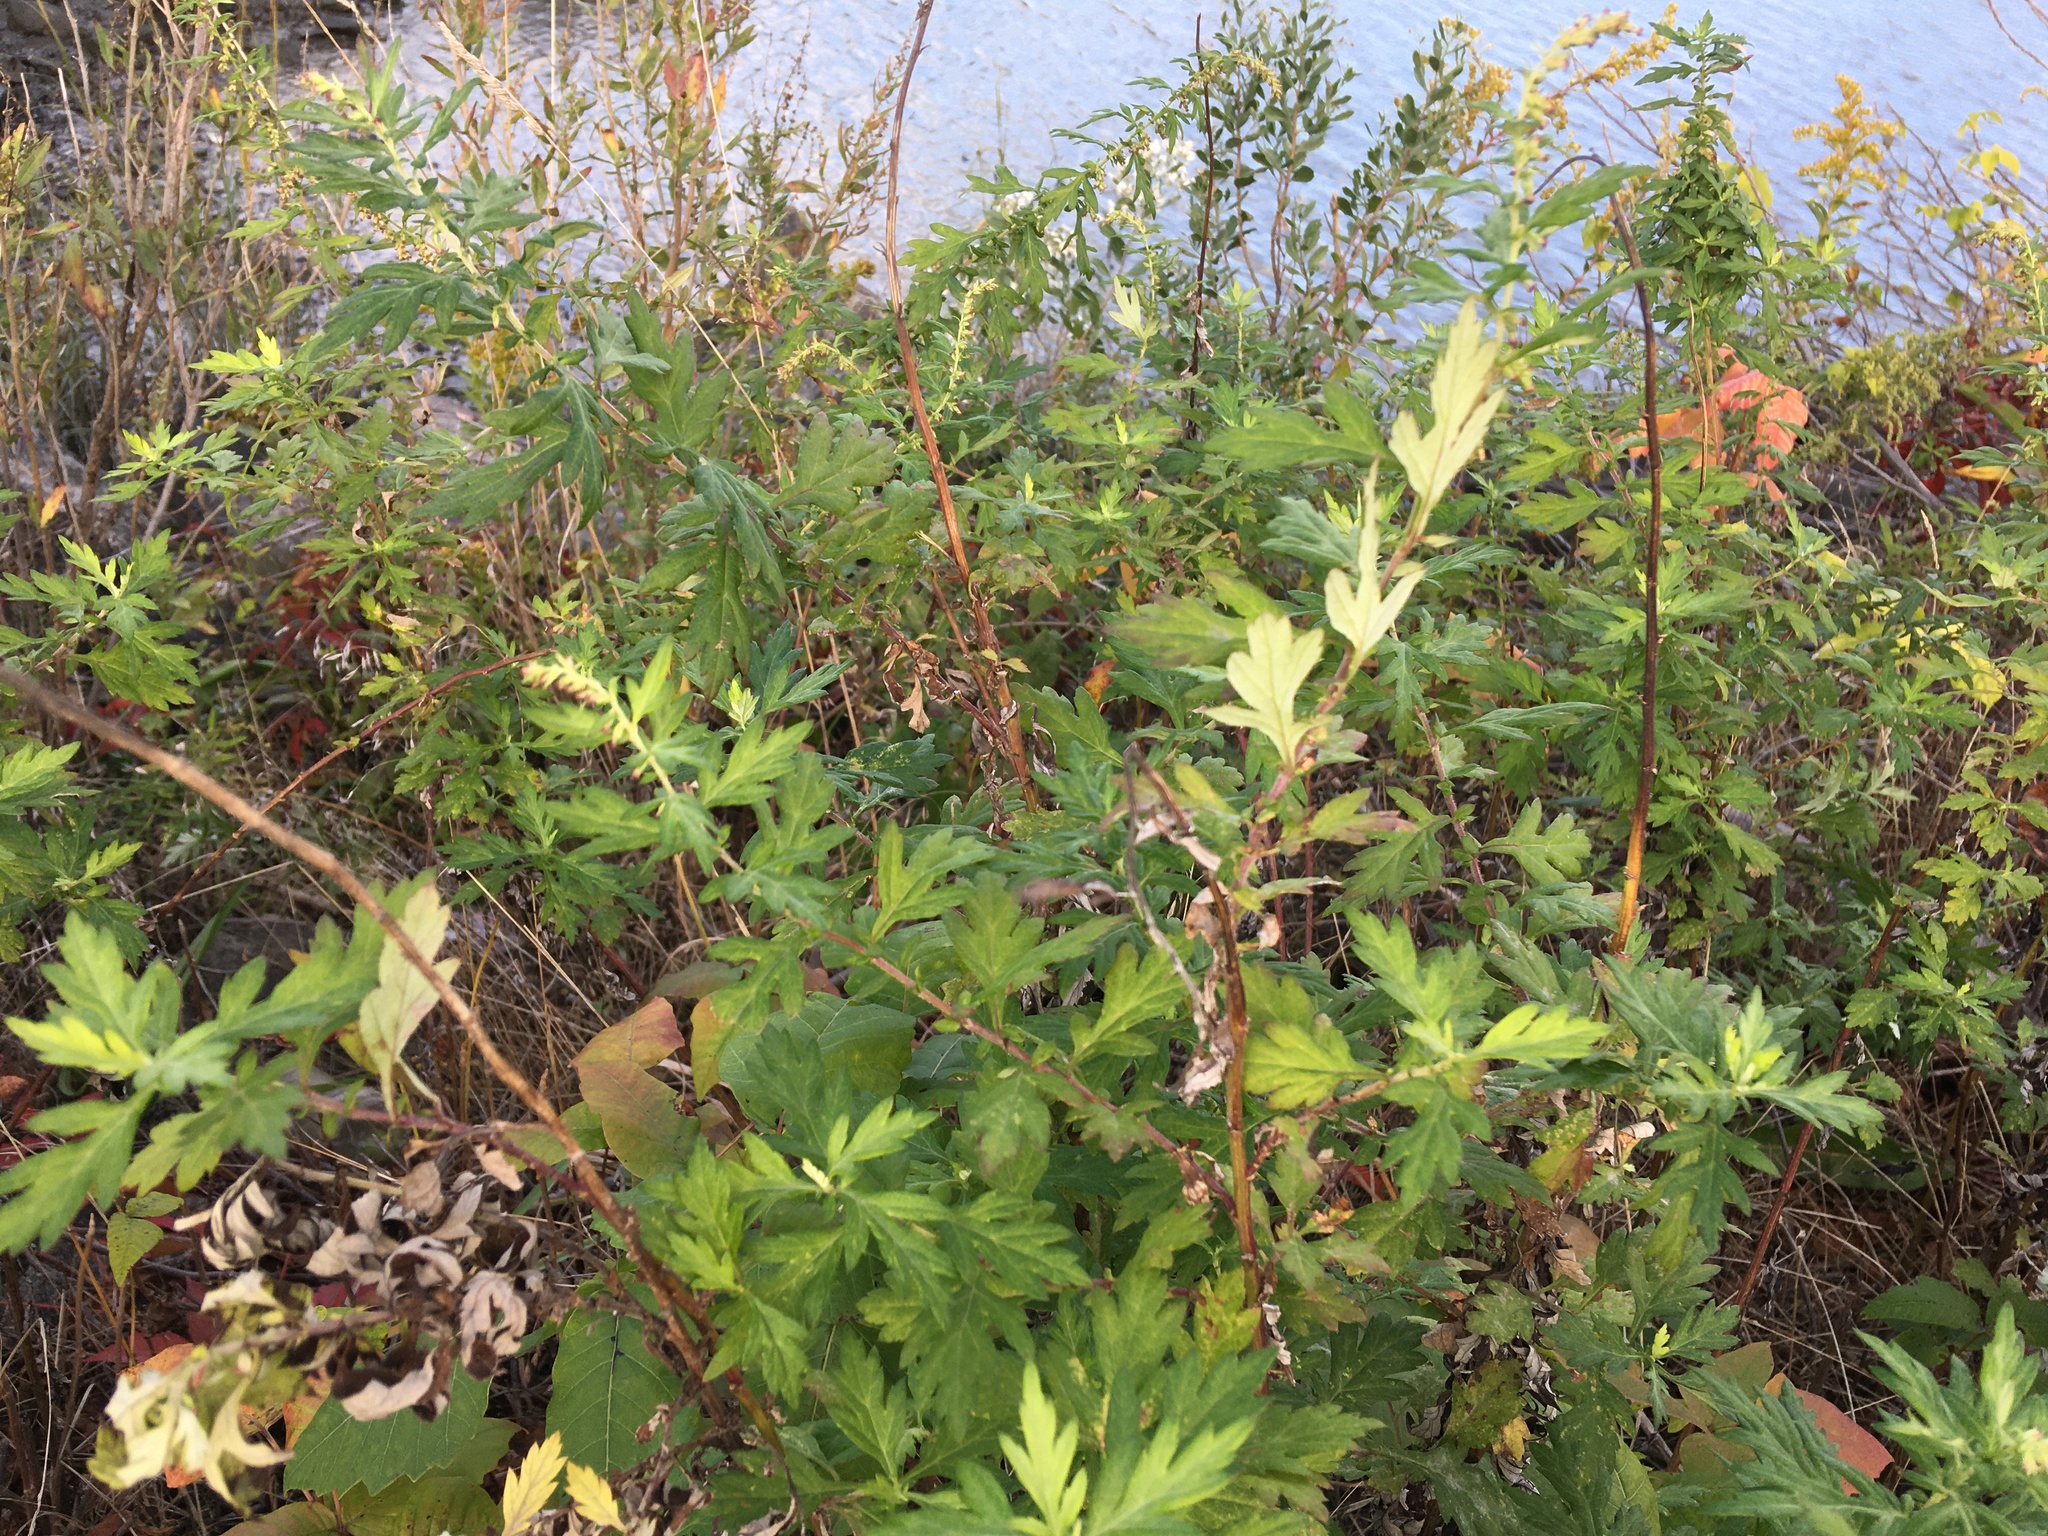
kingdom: Plantae
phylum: Tracheophyta
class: Magnoliopsida
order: Asterales
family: Asteraceae
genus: Artemisia
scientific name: Artemisia vulgaris
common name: Mugwort
